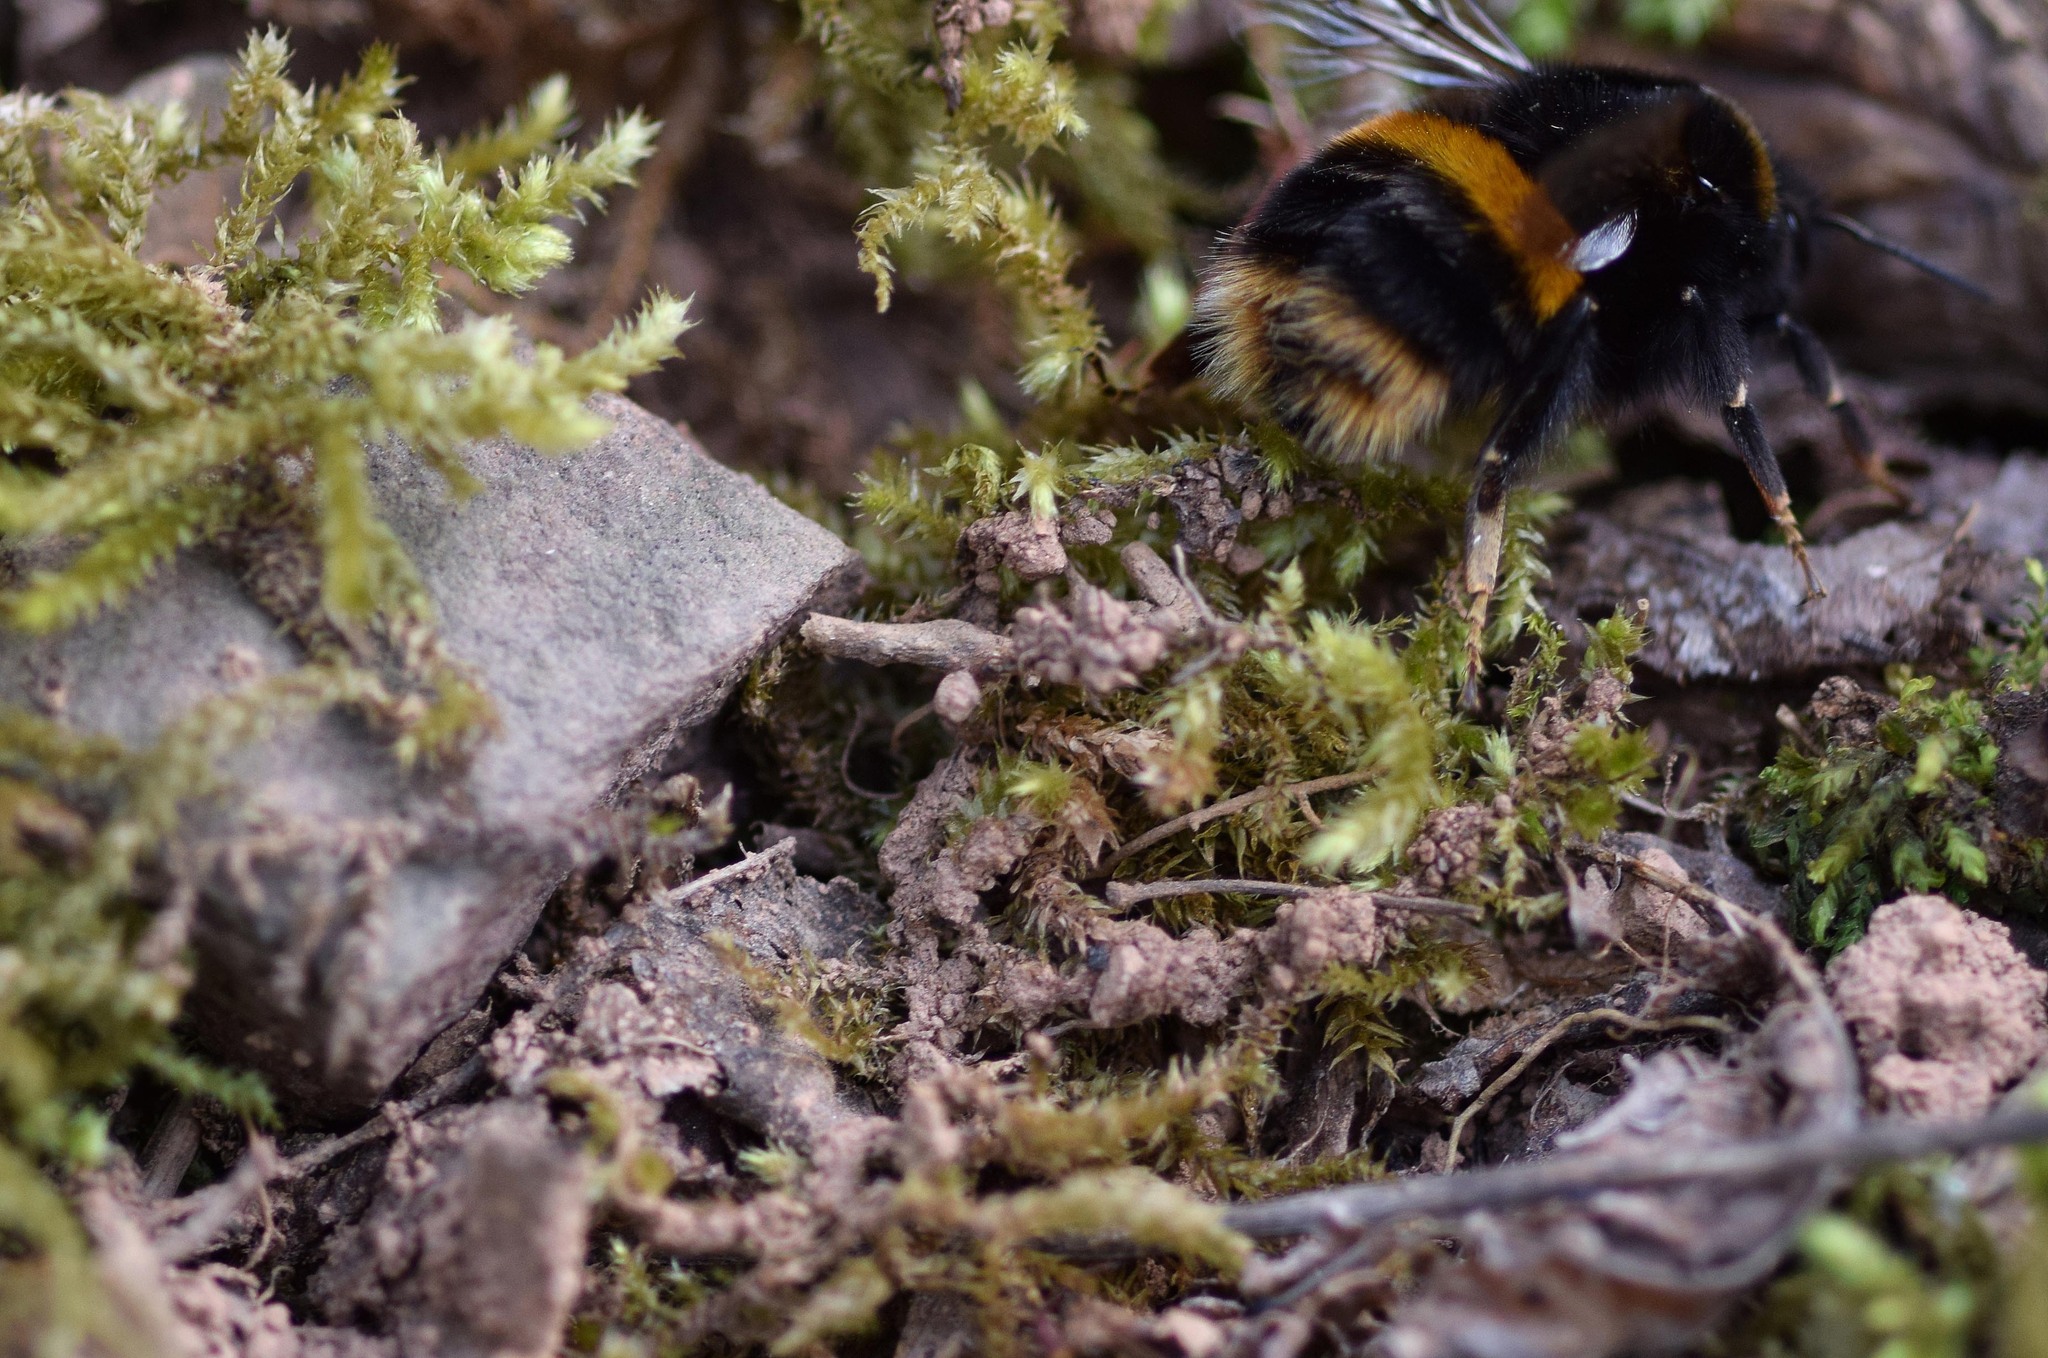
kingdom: Animalia
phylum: Arthropoda
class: Insecta
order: Hymenoptera
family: Apidae
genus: Bombus
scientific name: Bombus terrestris
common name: Buff-tailed bumblebee
